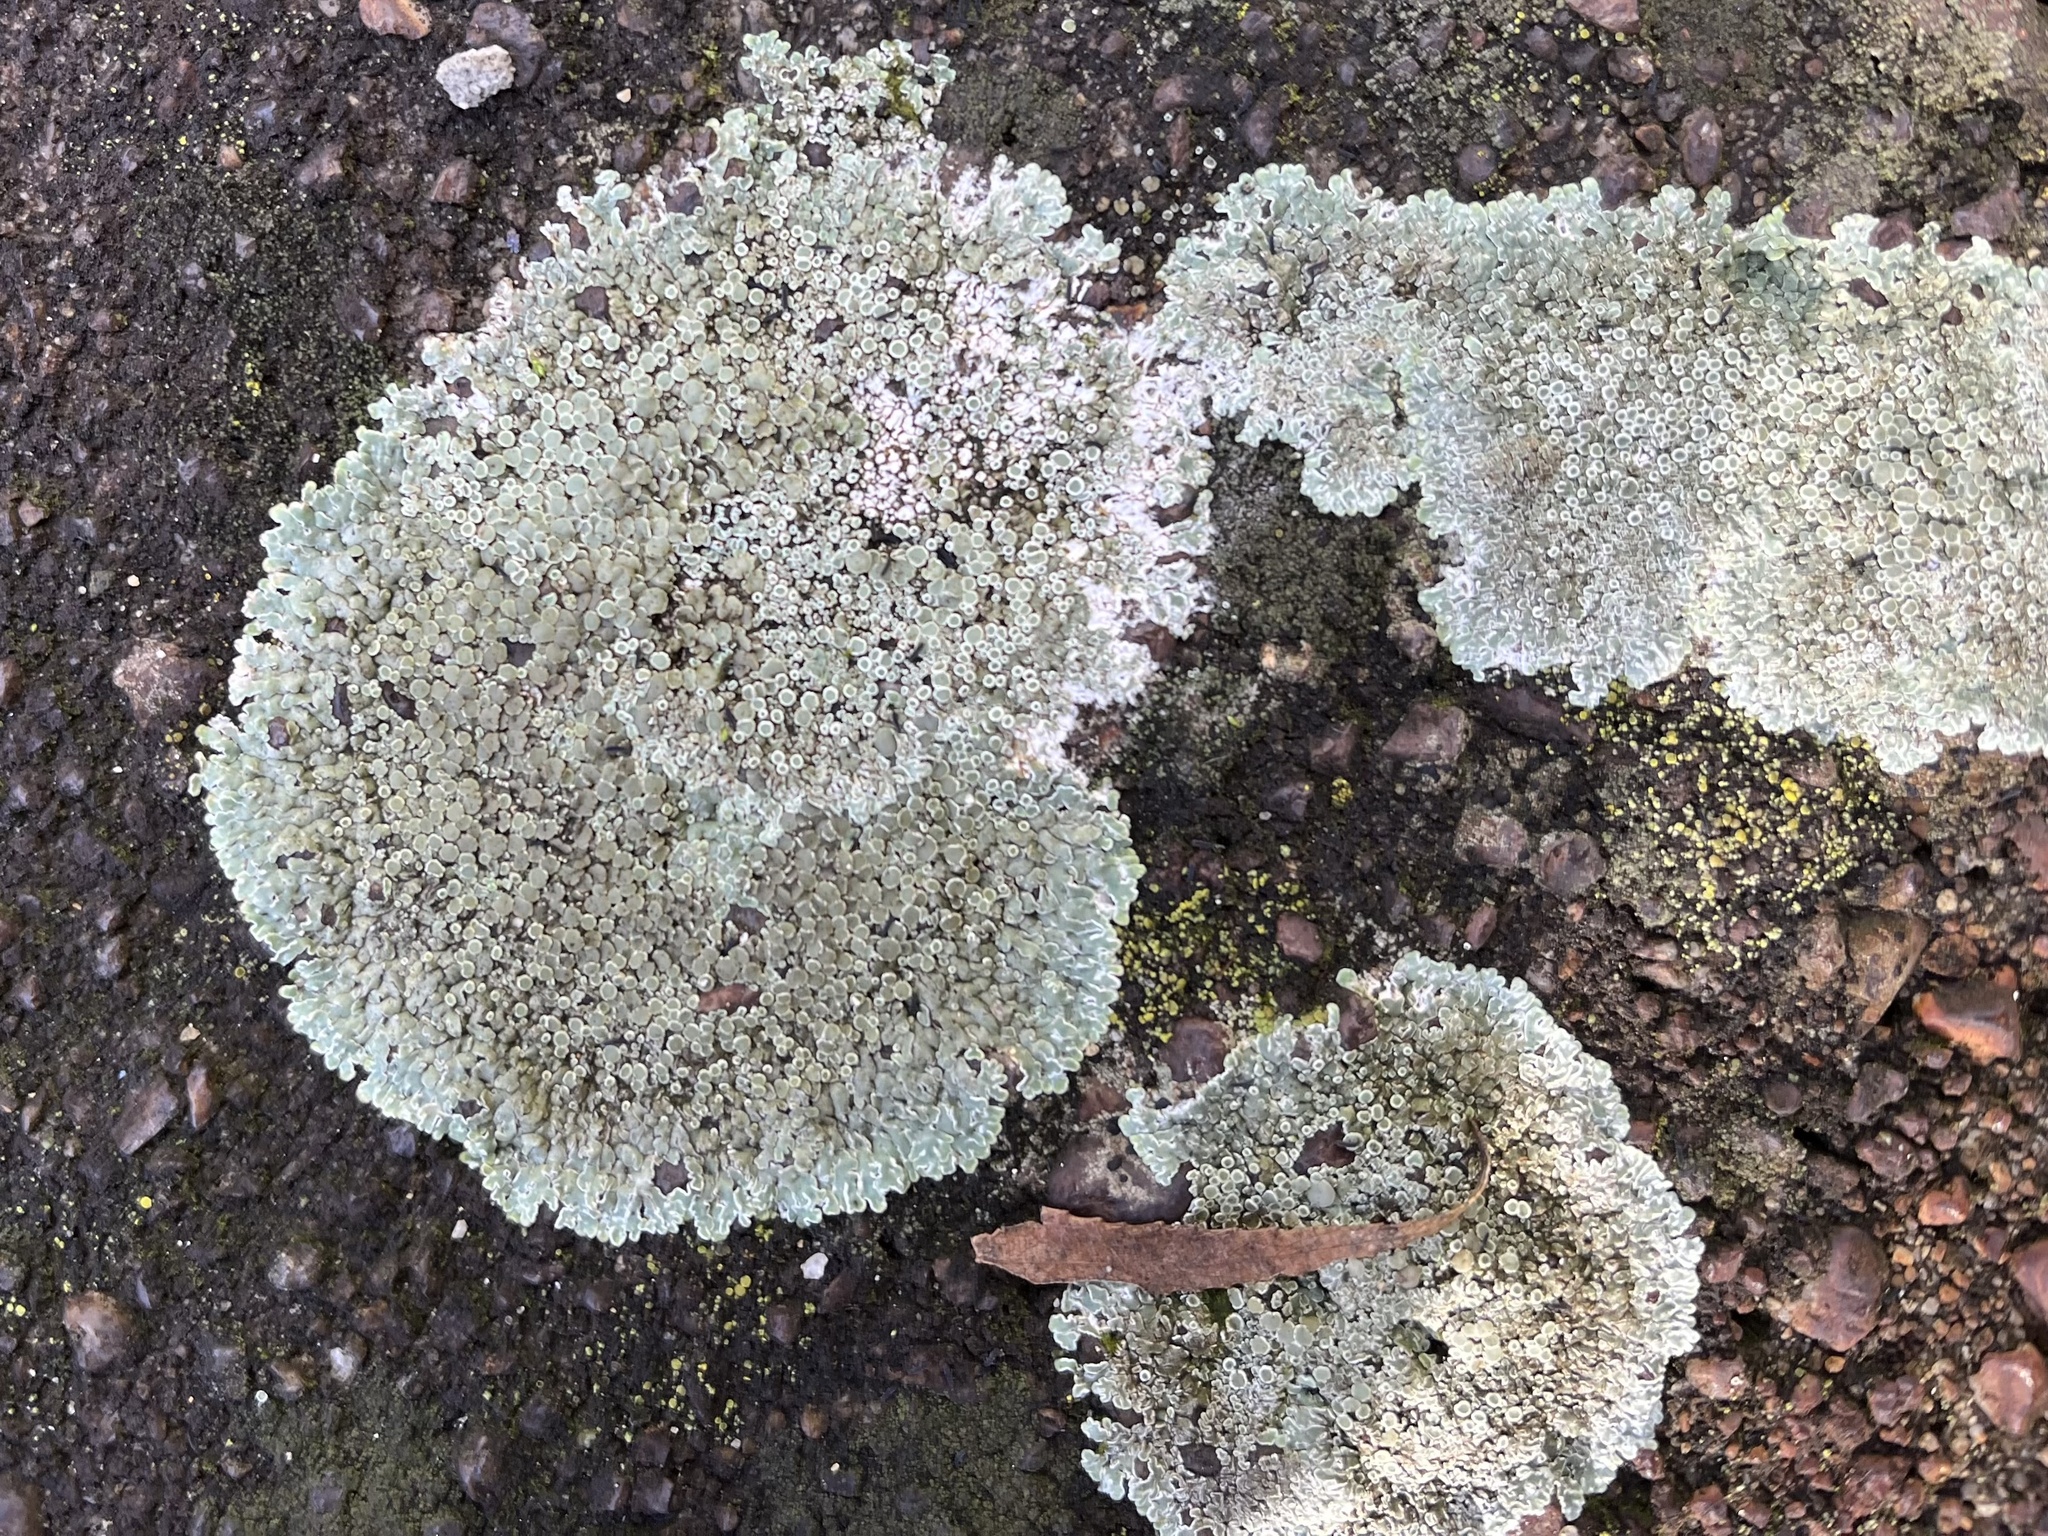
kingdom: Fungi
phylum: Ascomycota
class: Lecanoromycetes
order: Lecanorales
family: Lecanoraceae
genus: Protoparmeliopsis
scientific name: Protoparmeliopsis muralis
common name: Stonewall rim lichen
